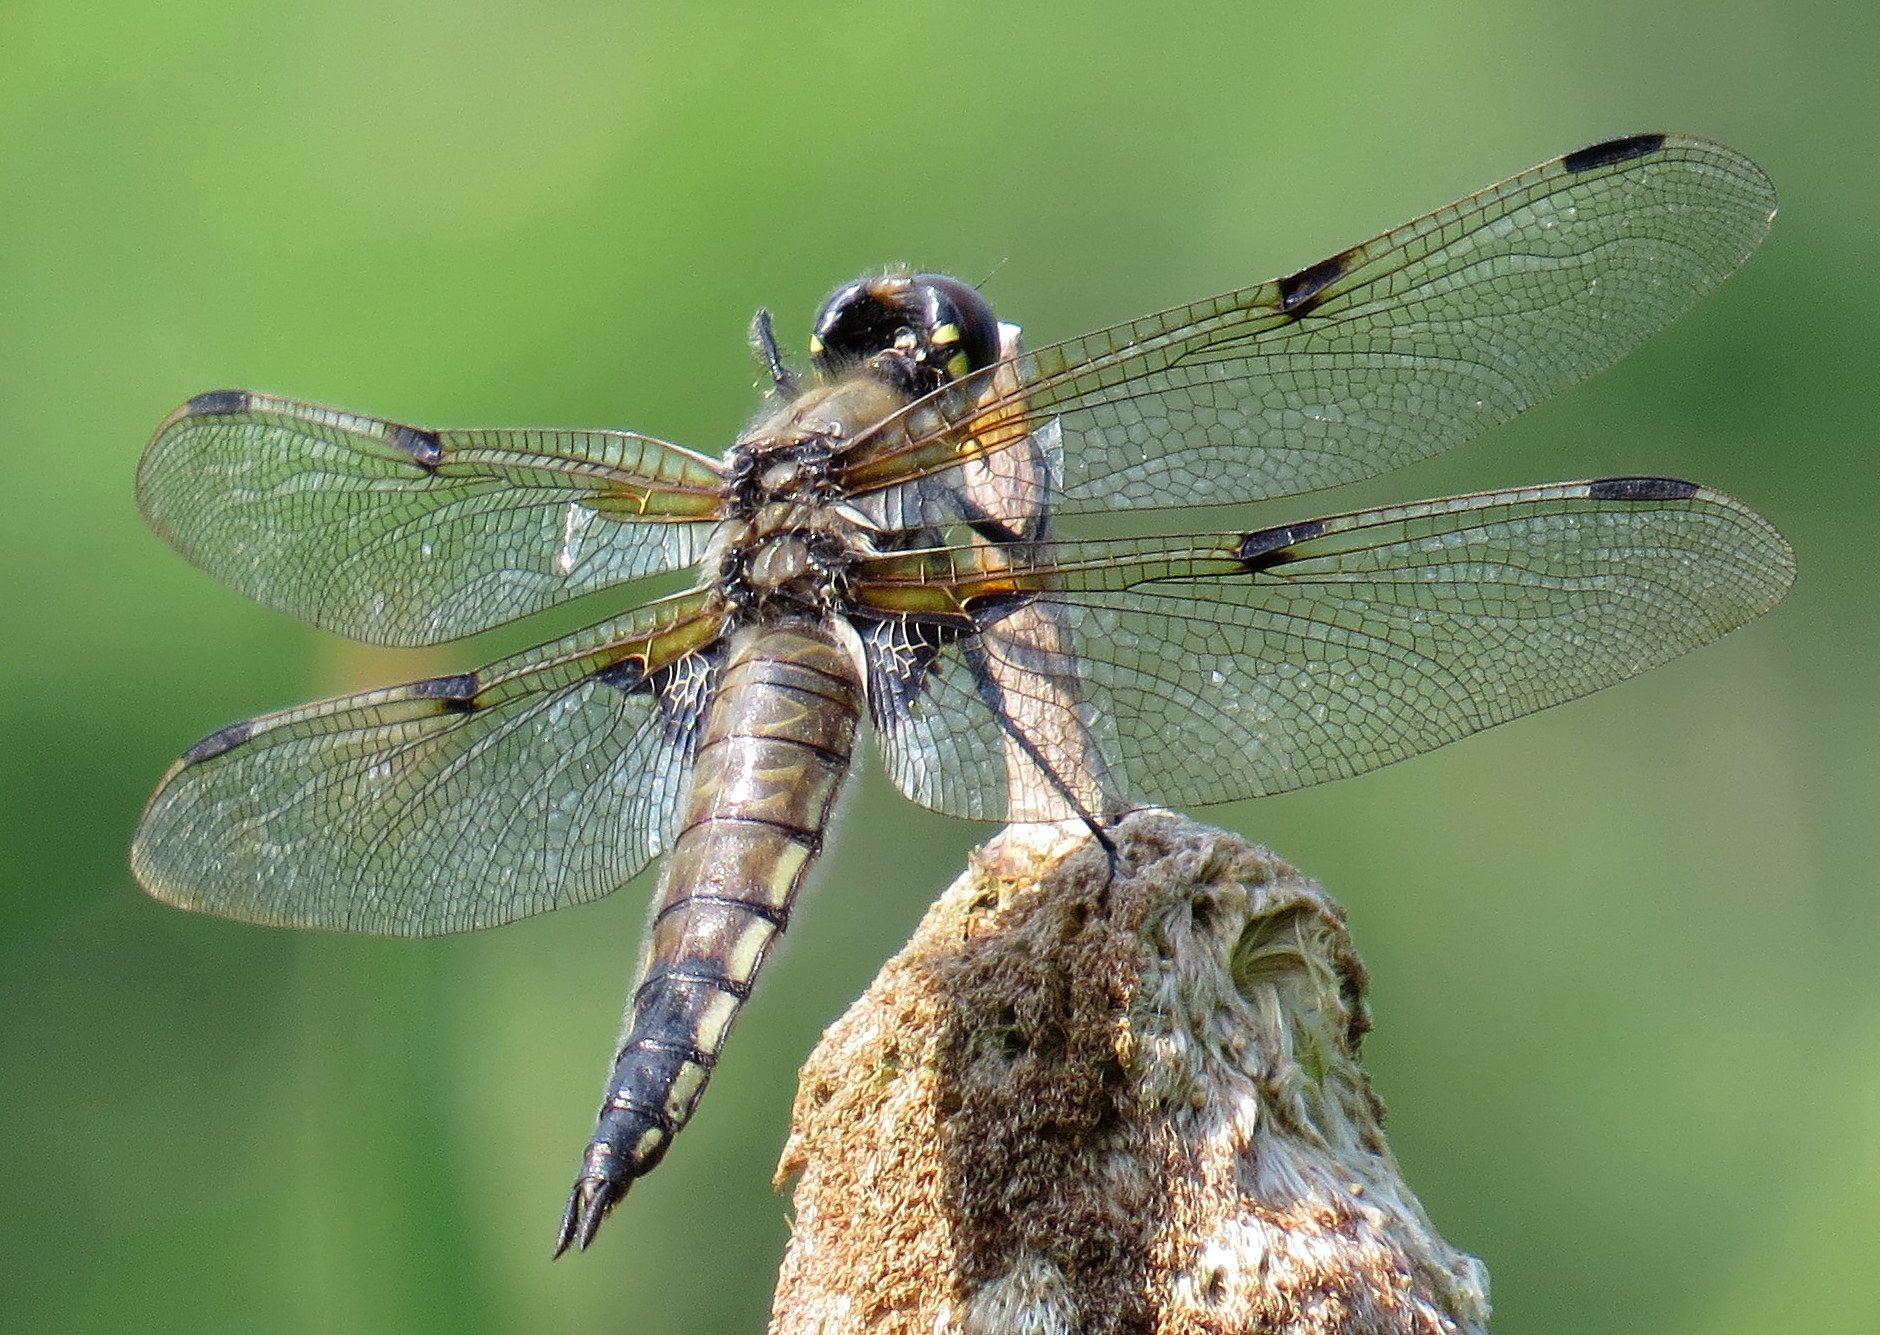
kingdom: Animalia
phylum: Arthropoda
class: Insecta
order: Odonata
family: Libellulidae
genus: Libellula
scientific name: Libellula quadrimaculata
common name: Four-spotted chaser
